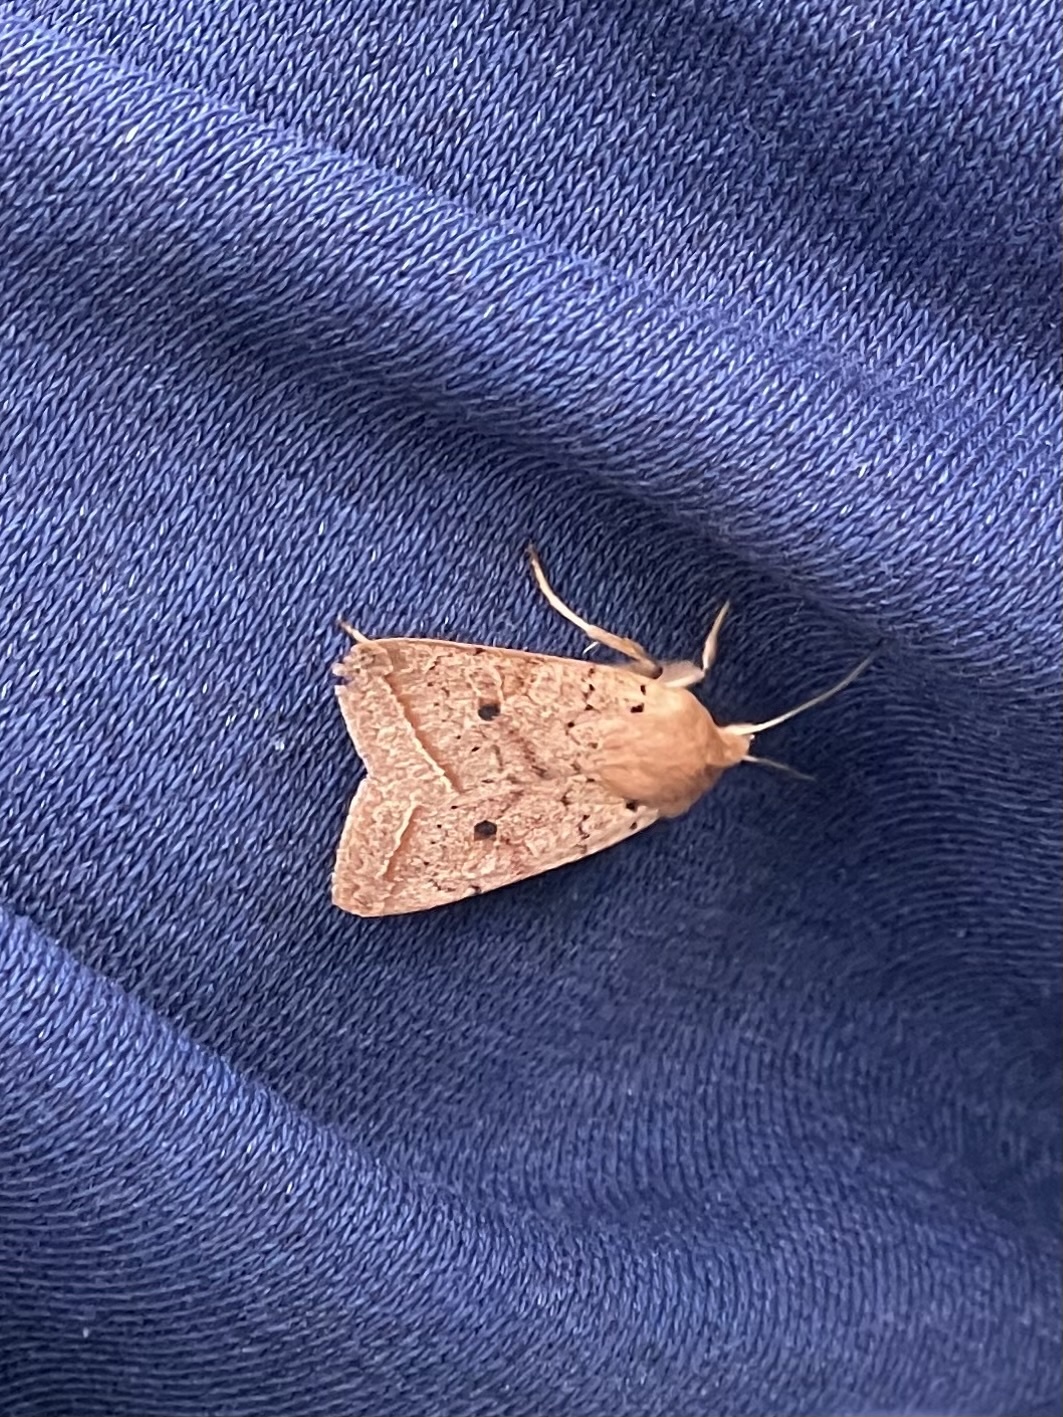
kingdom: Animalia
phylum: Arthropoda
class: Insecta
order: Lepidoptera
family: Noctuidae
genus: Agrochola
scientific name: Agrochola macilenta
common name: Yellow-line quaker
